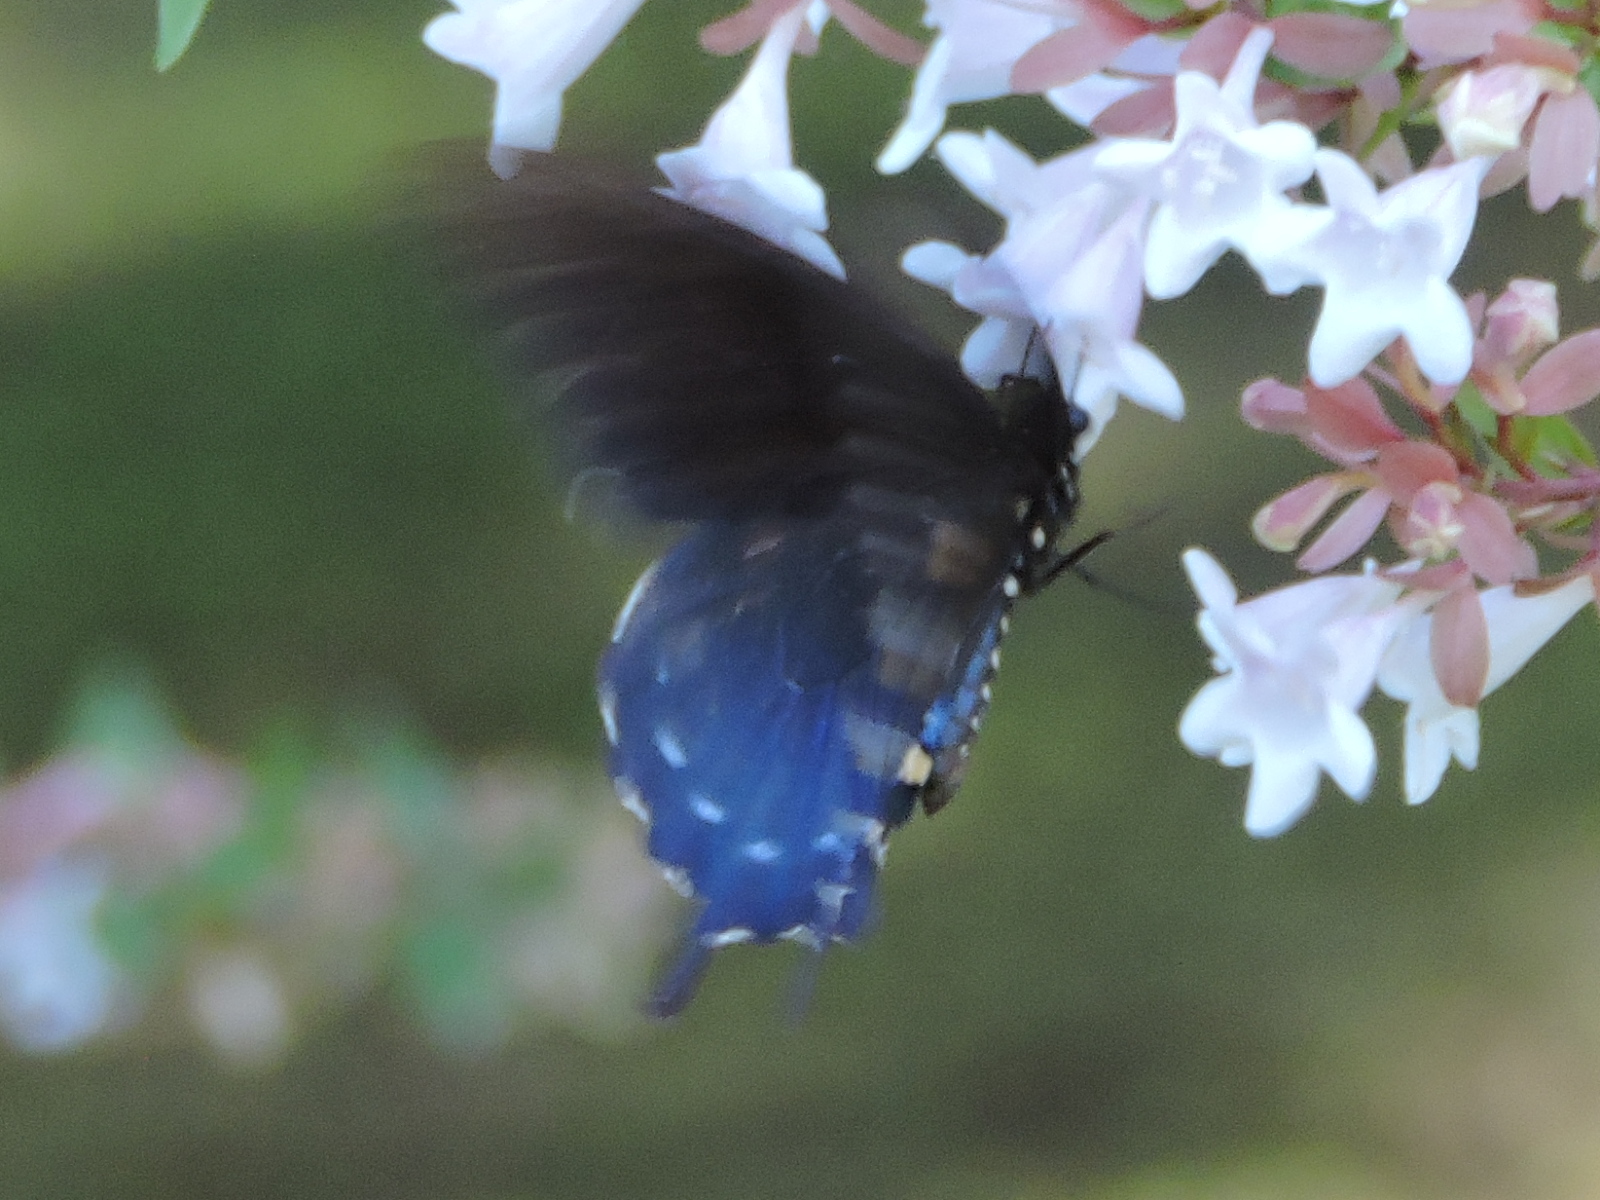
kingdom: Animalia
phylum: Arthropoda
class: Insecta
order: Lepidoptera
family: Papilionidae
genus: Battus
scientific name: Battus philenor
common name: Pipevine swallowtail
